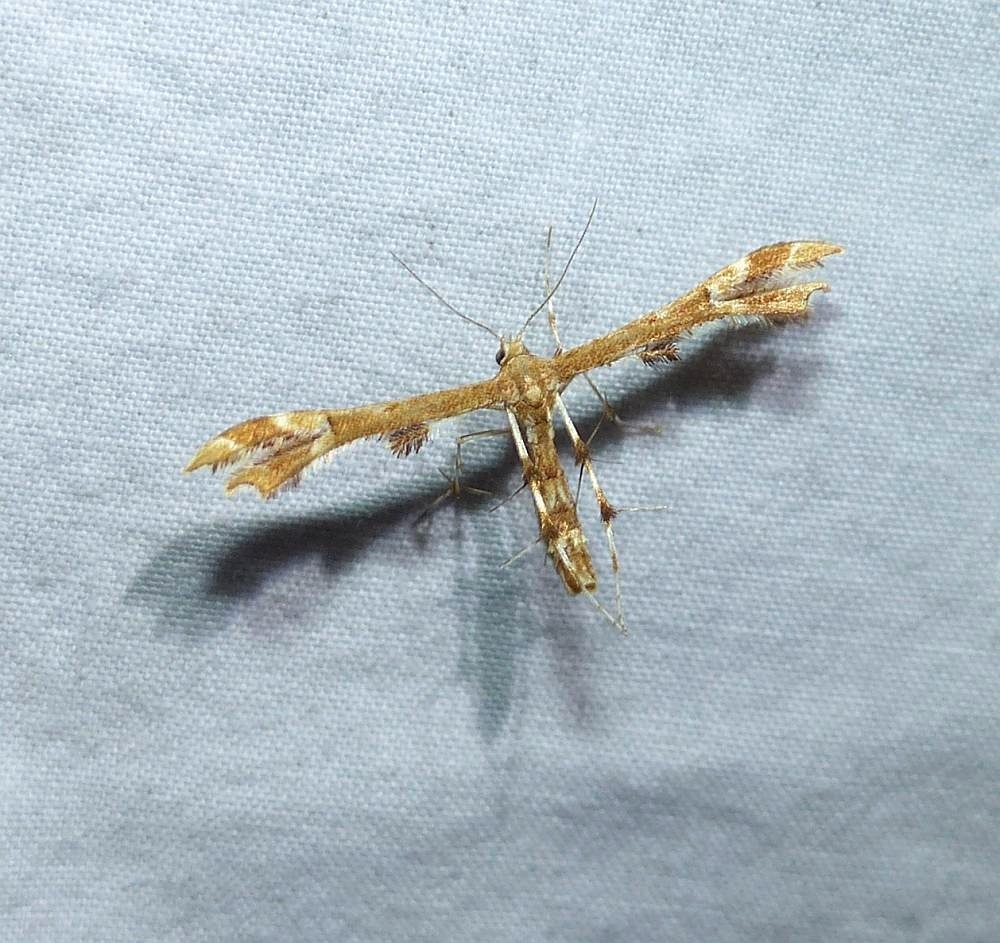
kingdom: Animalia
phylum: Arthropoda
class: Insecta
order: Lepidoptera
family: Pterophoridae
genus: Geina
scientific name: Geina
